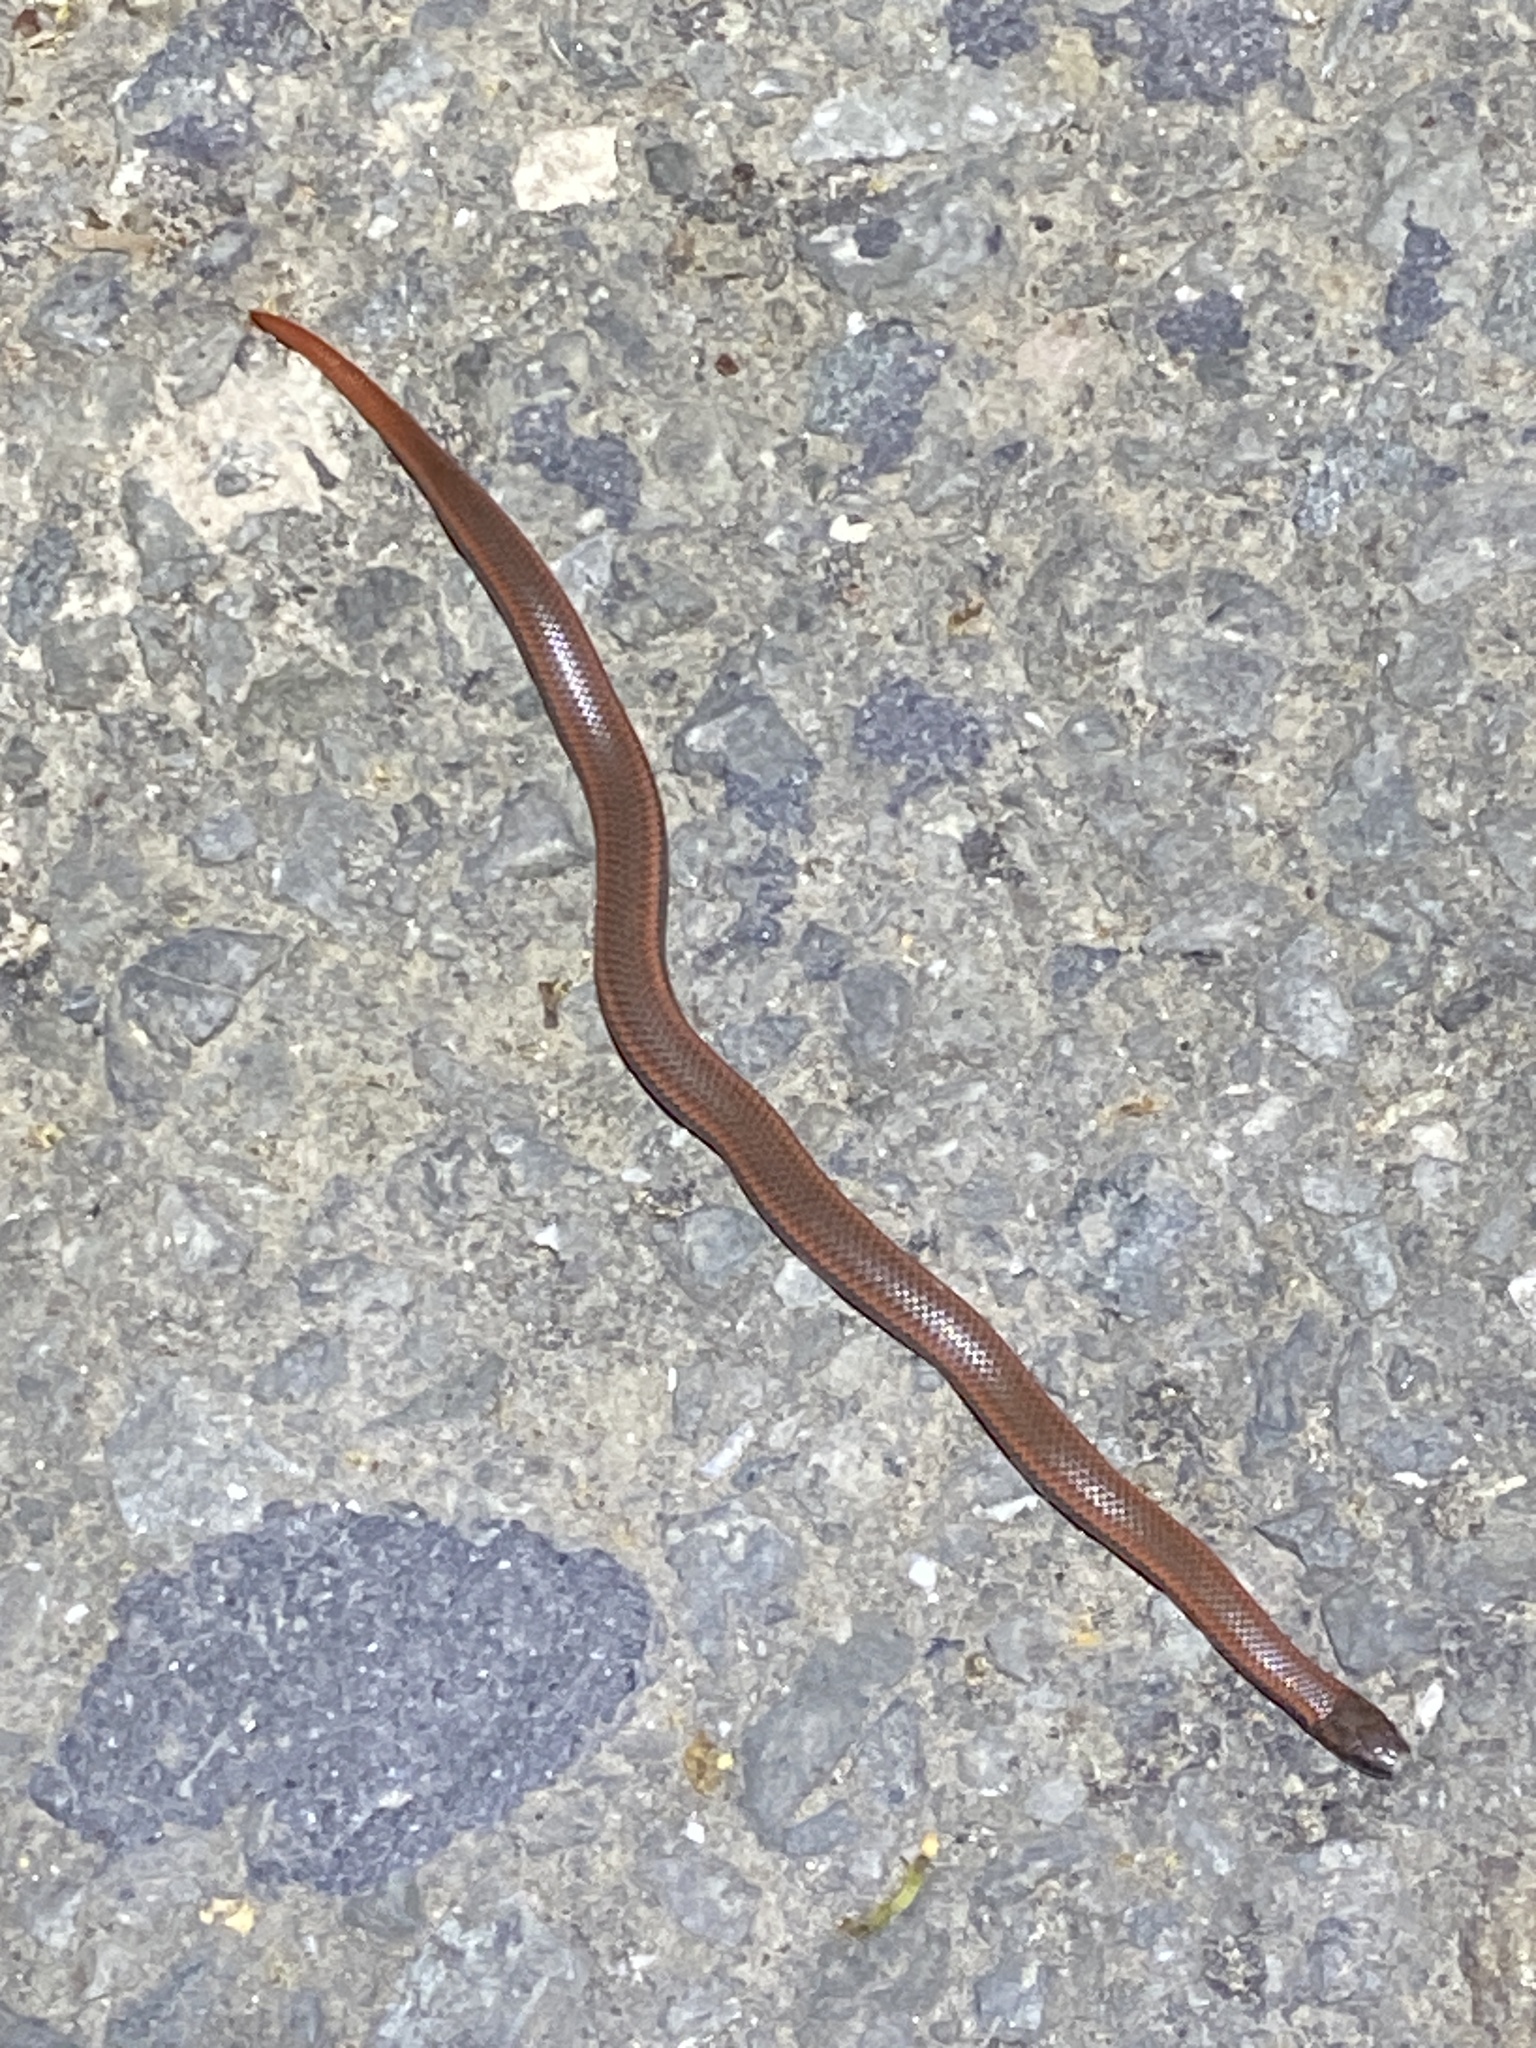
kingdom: Animalia
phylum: Chordata
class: Squamata
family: Colubridae
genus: Contia
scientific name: Contia tenuis
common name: Sharptail snake
